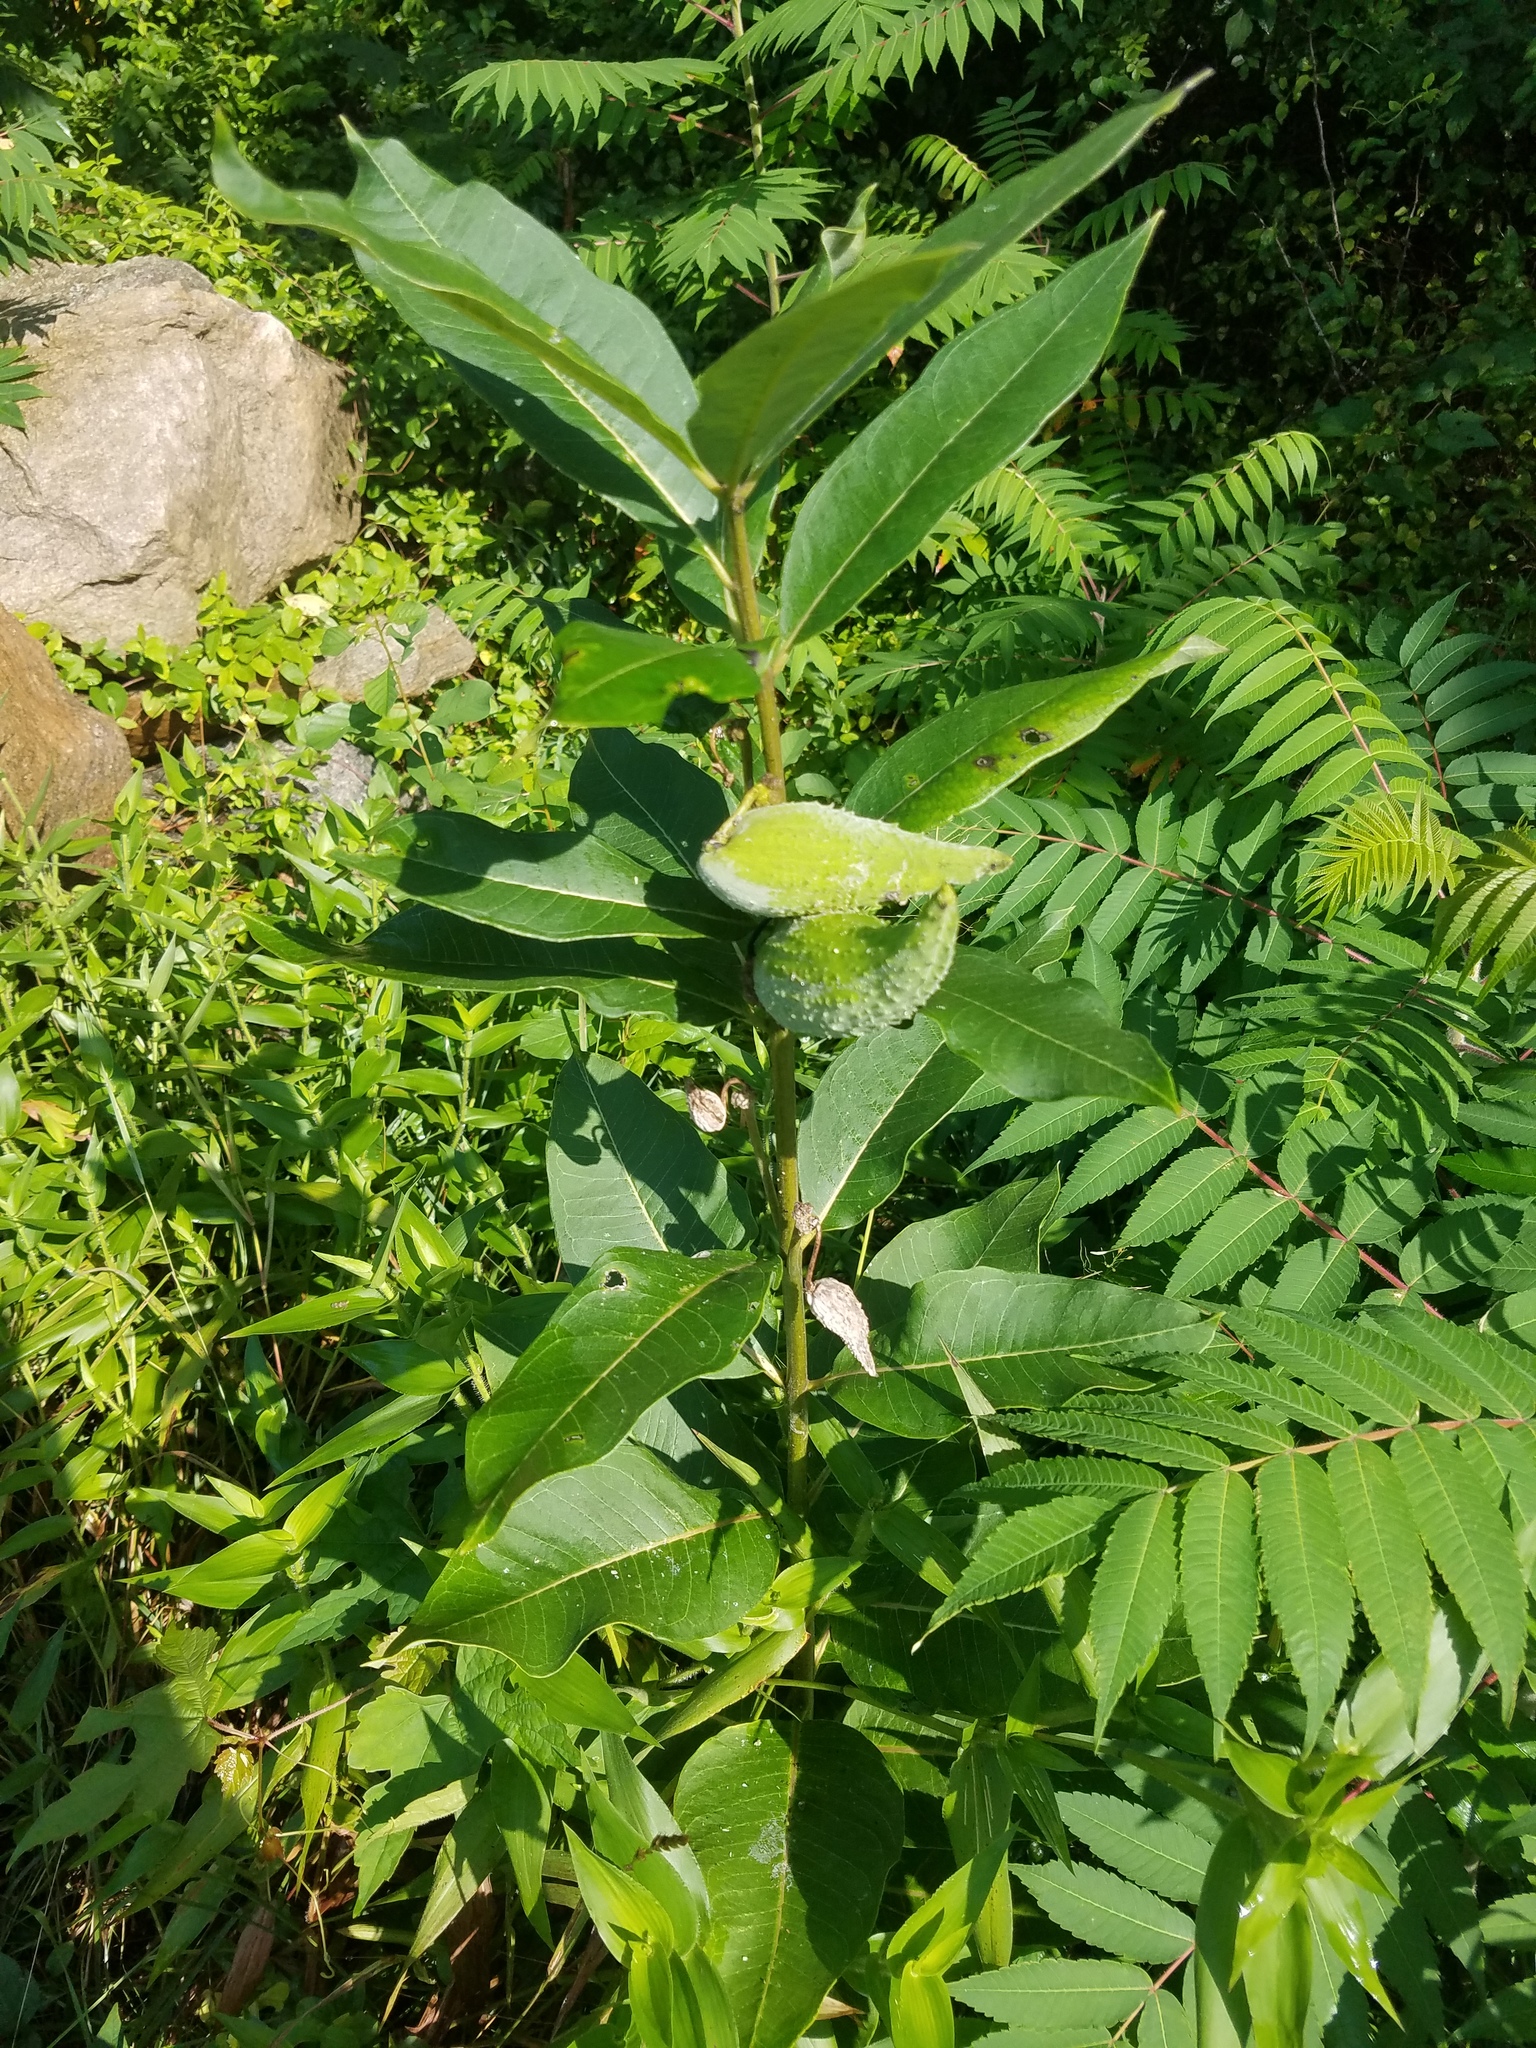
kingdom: Plantae
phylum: Tracheophyta
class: Magnoliopsida
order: Gentianales
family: Apocynaceae
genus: Asclepias
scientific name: Asclepias syriaca
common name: Common milkweed
